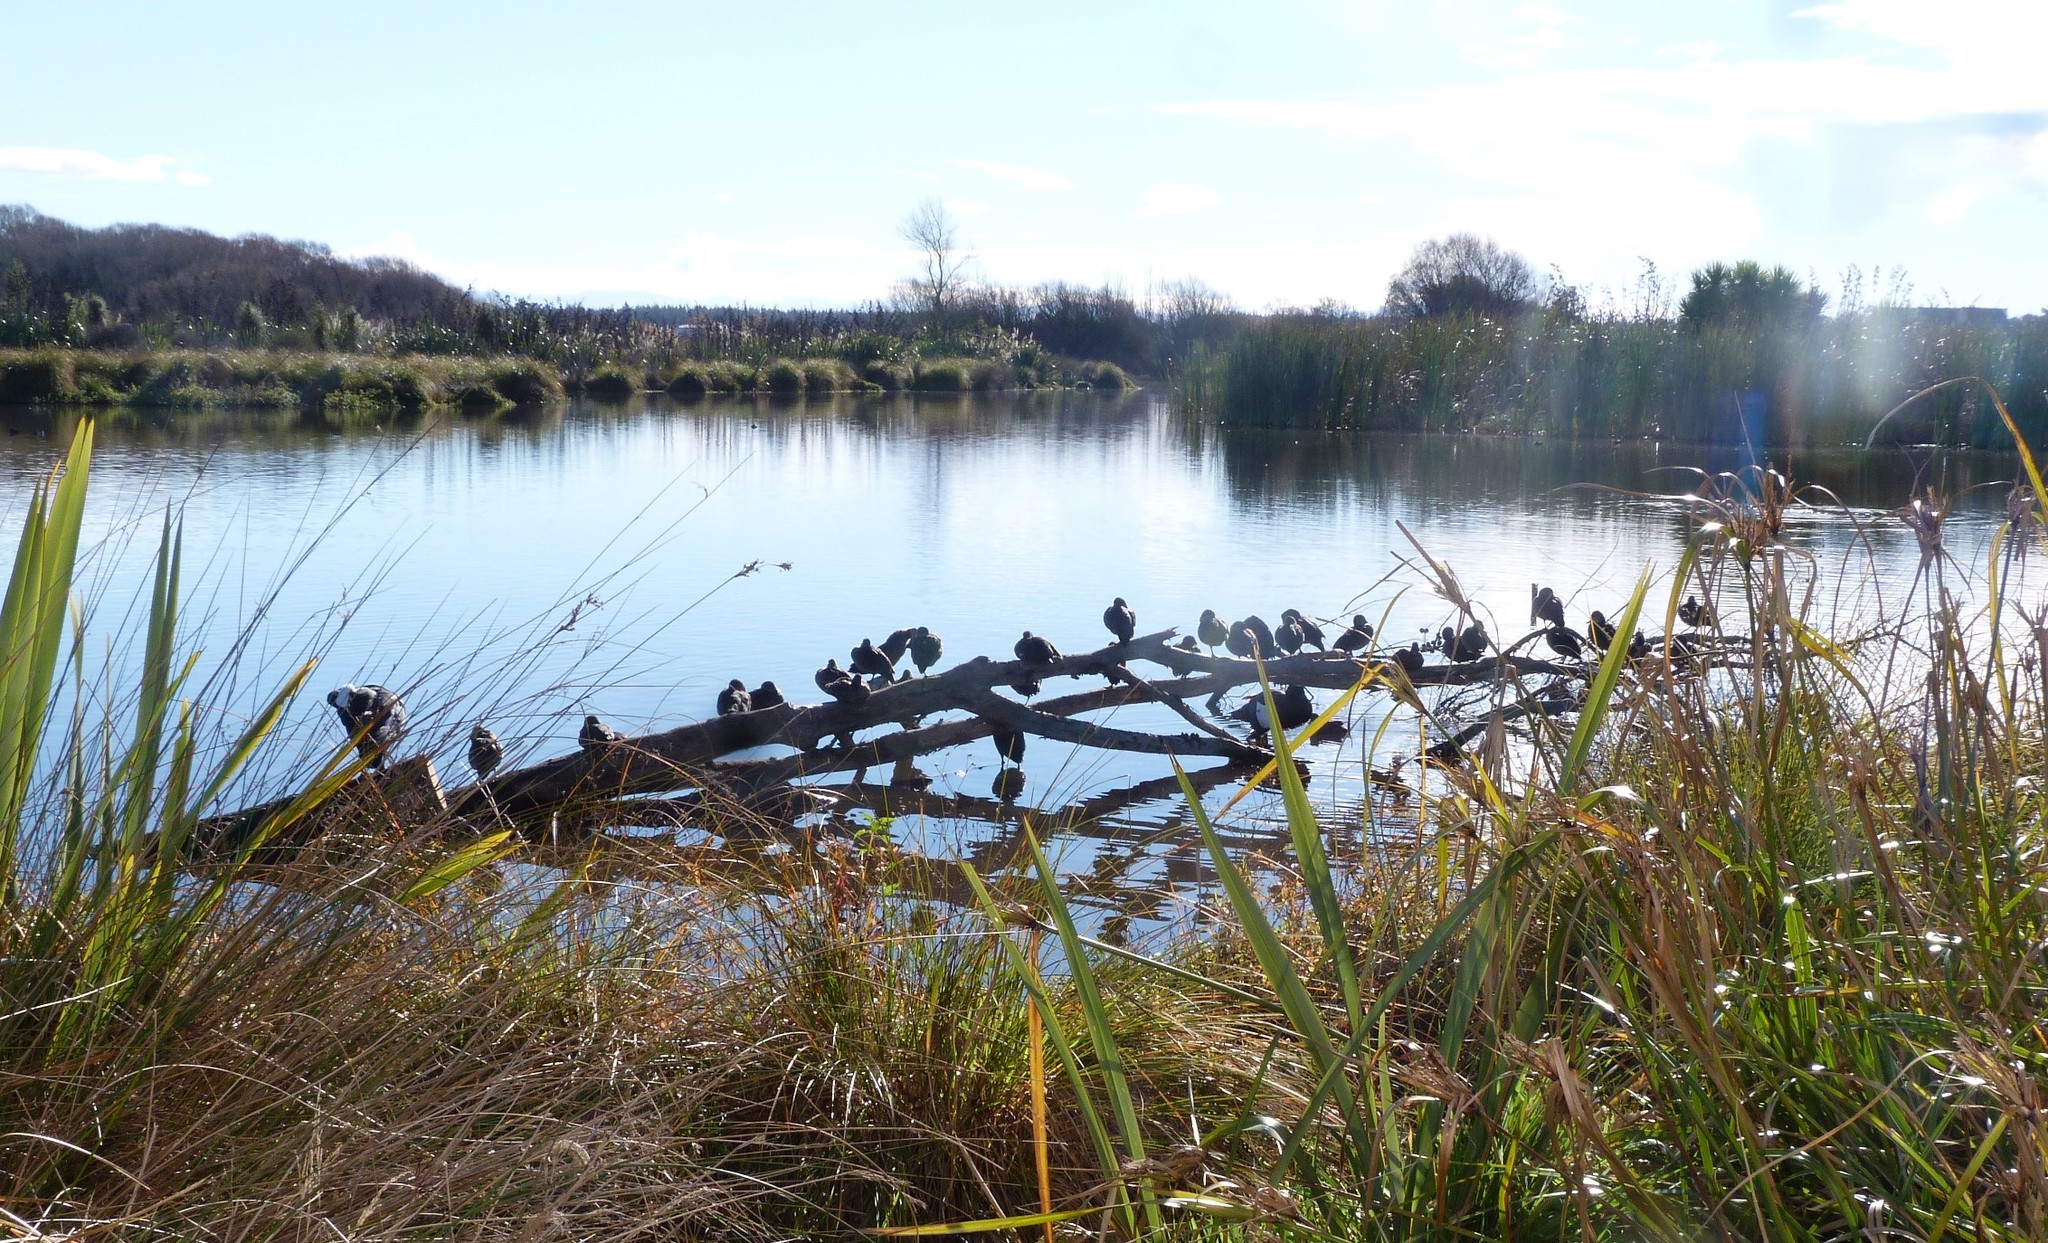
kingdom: Animalia
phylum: Chordata
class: Aves
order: Anseriformes
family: Anatidae
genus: Anas
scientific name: Anas gracilis
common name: Grey teal
